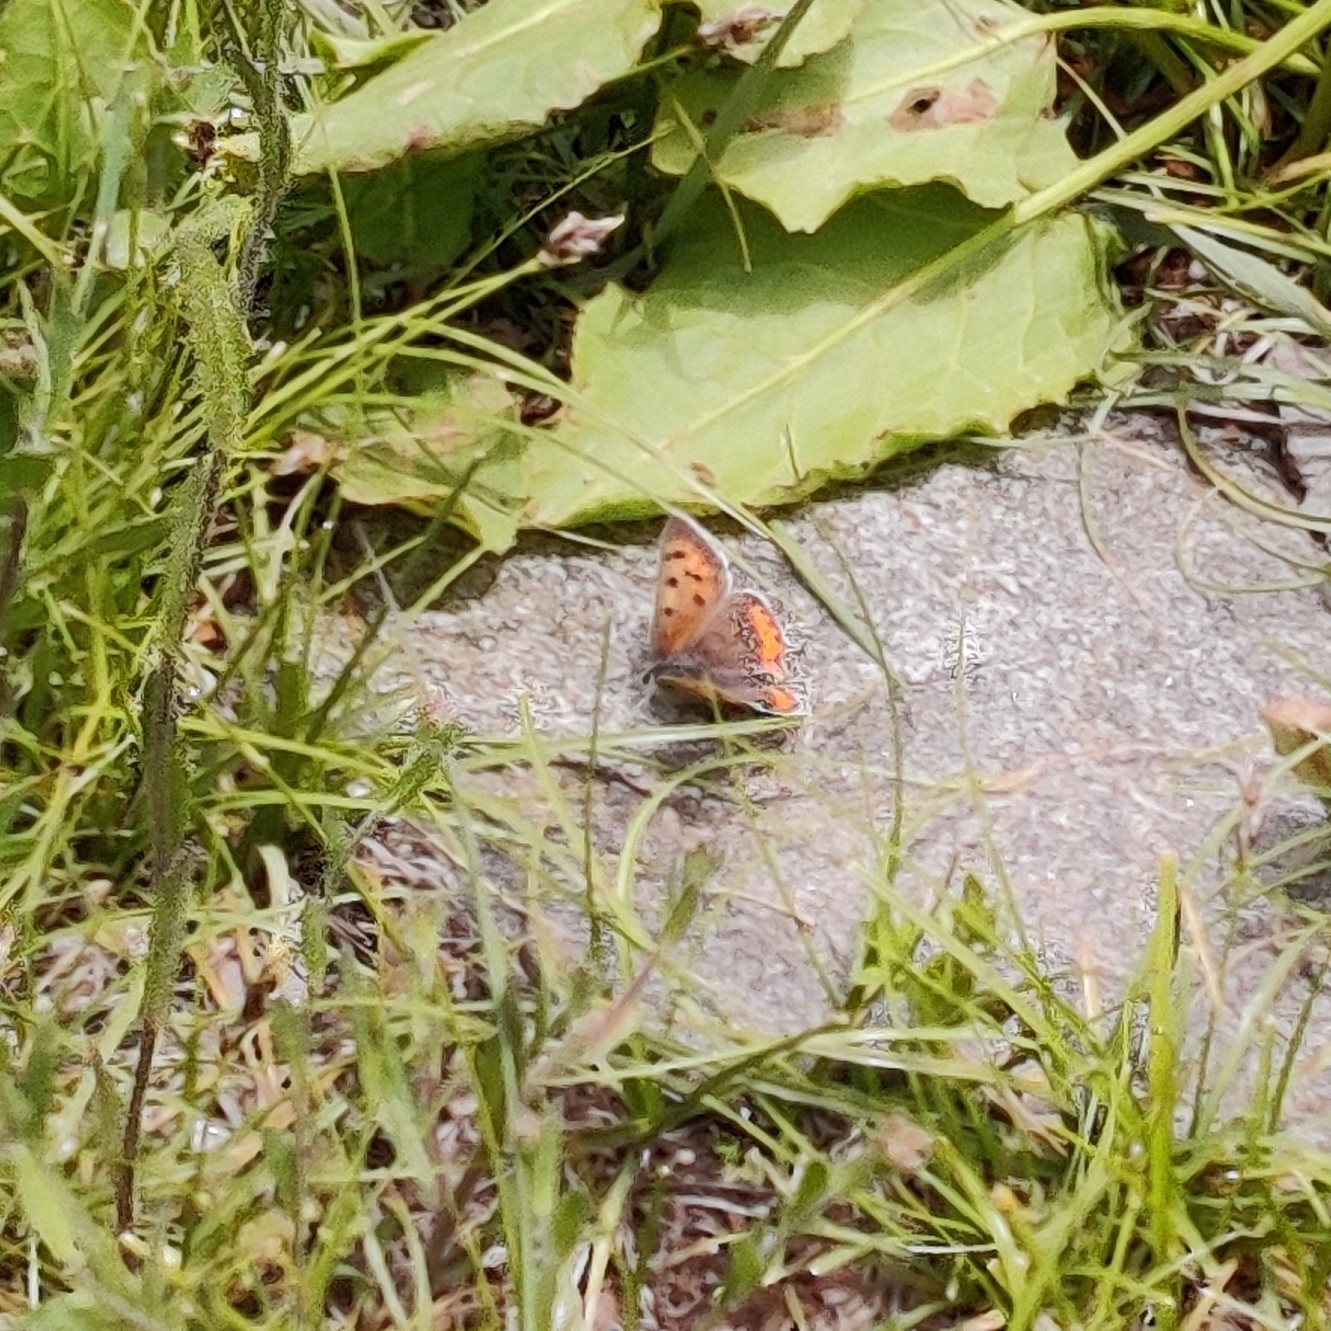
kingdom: Animalia
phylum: Arthropoda
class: Insecta
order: Lepidoptera
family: Lycaenidae
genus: Lycaena
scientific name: Lycaena phlaeas
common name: Small copper
